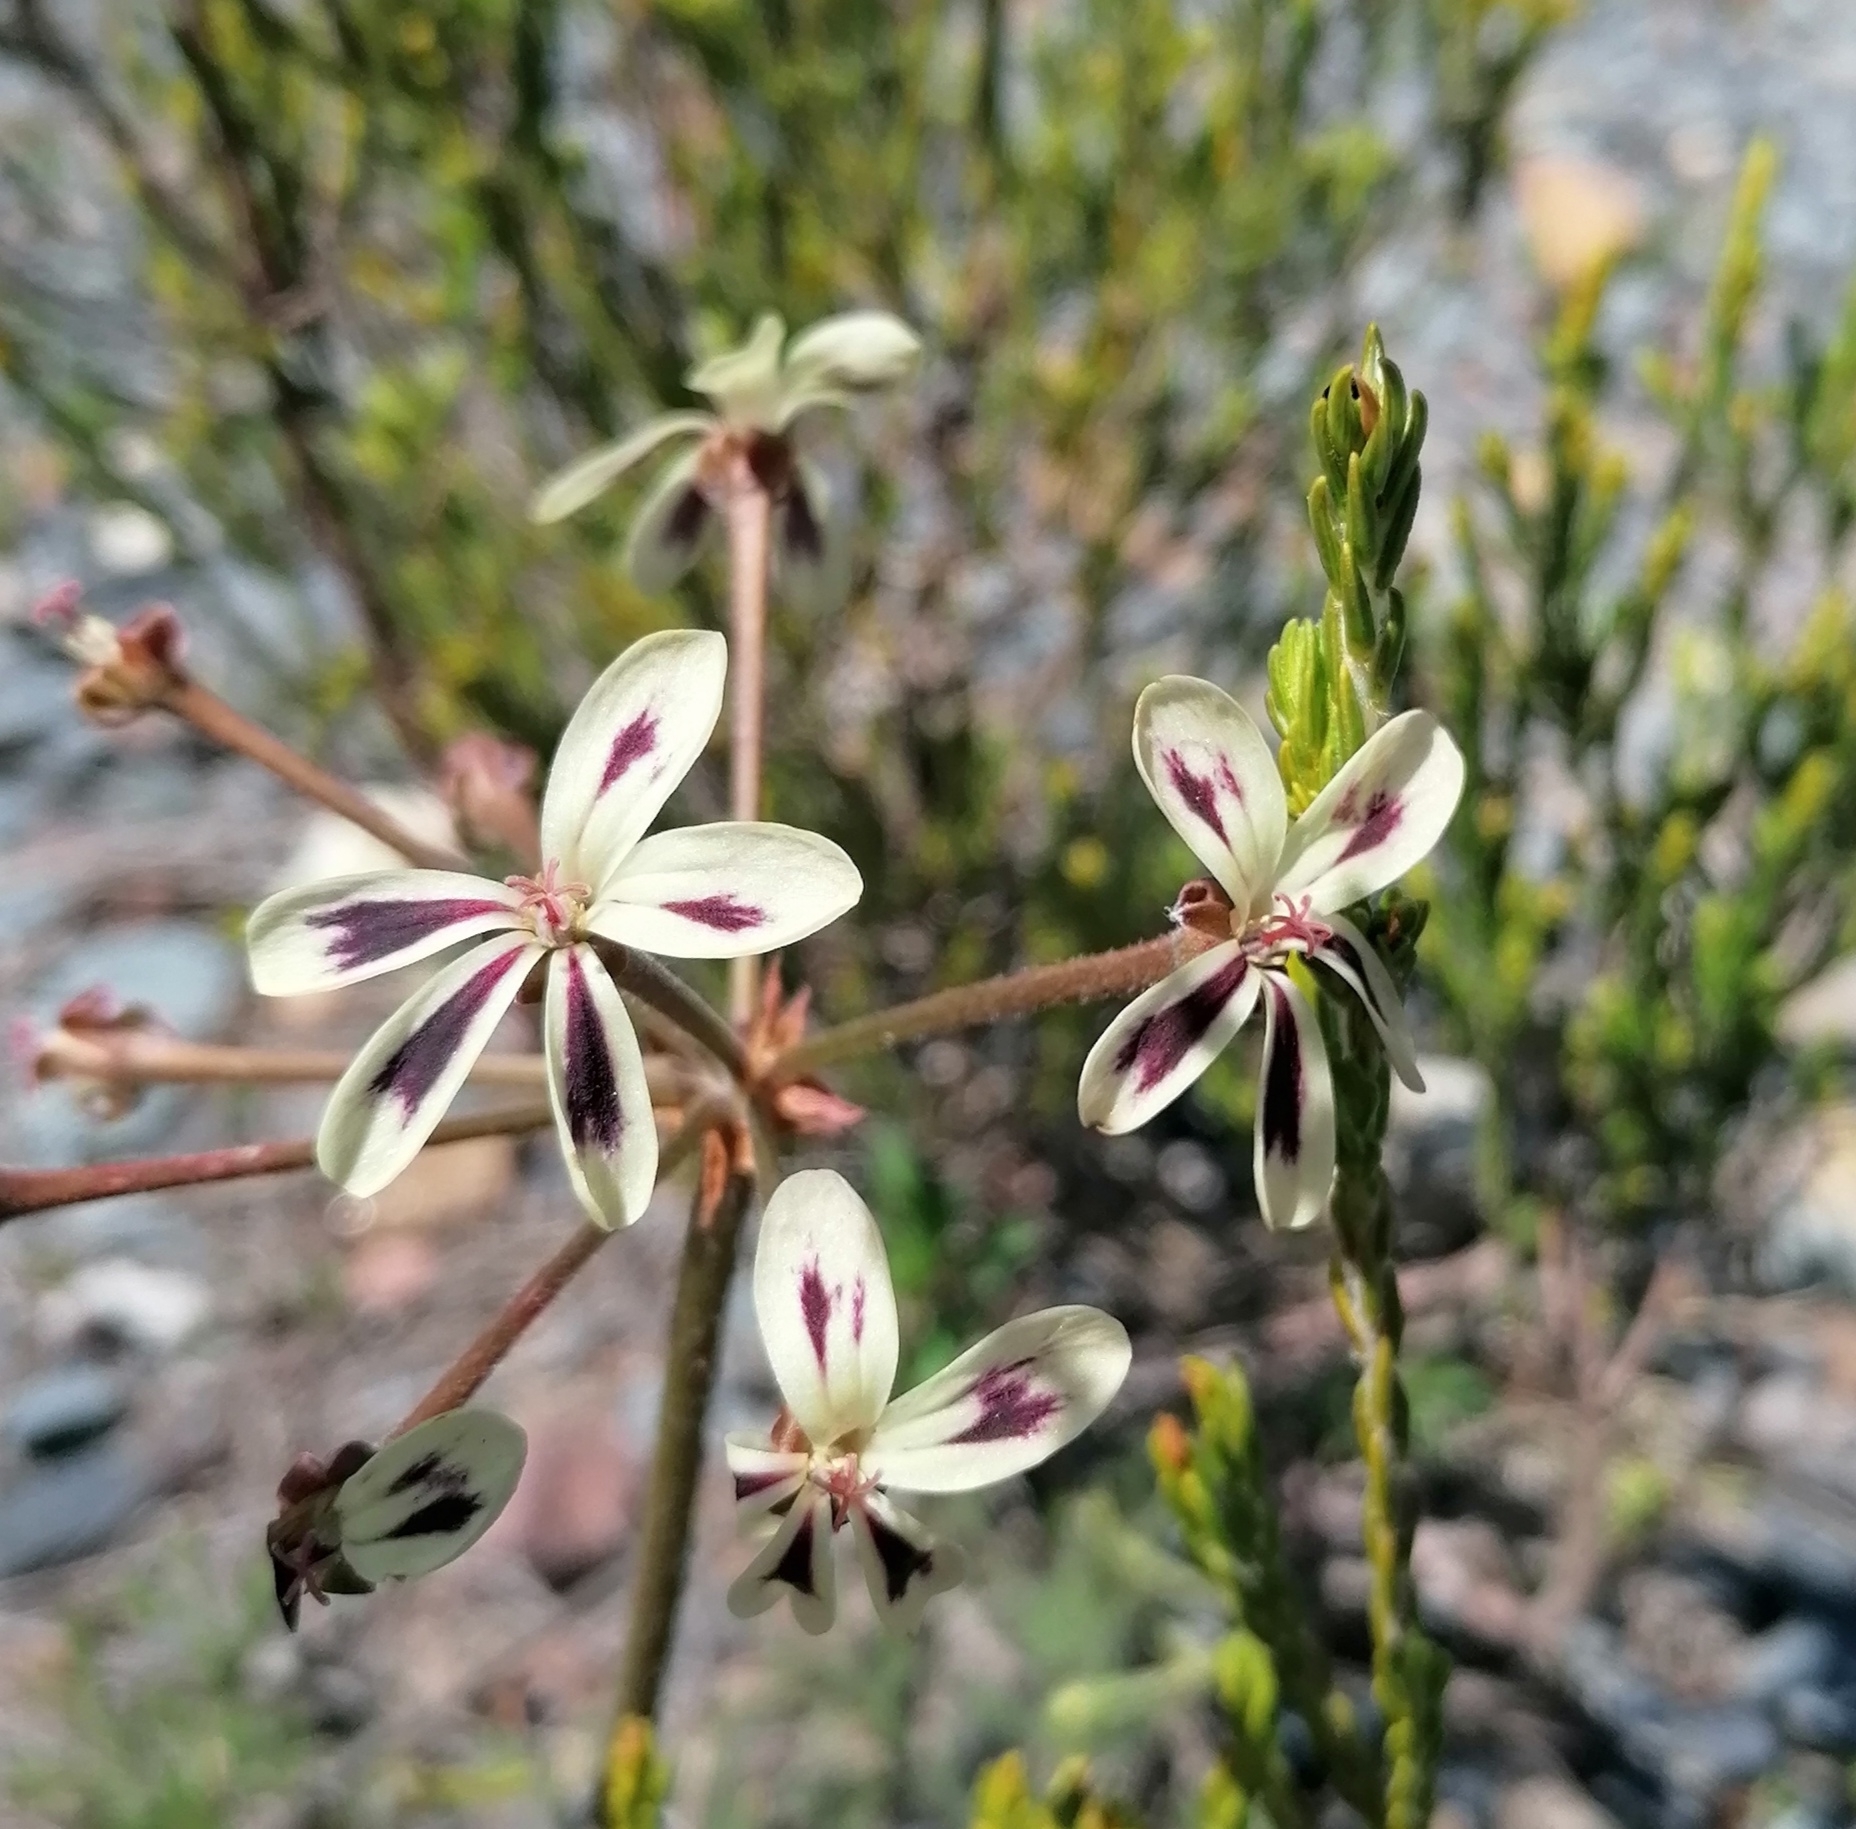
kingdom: Plantae
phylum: Tracheophyta
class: Magnoliopsida
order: Geraniales
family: Geraniaceae
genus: Pelargonium
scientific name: Pelargonium triste
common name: Night-scent pelargonium
